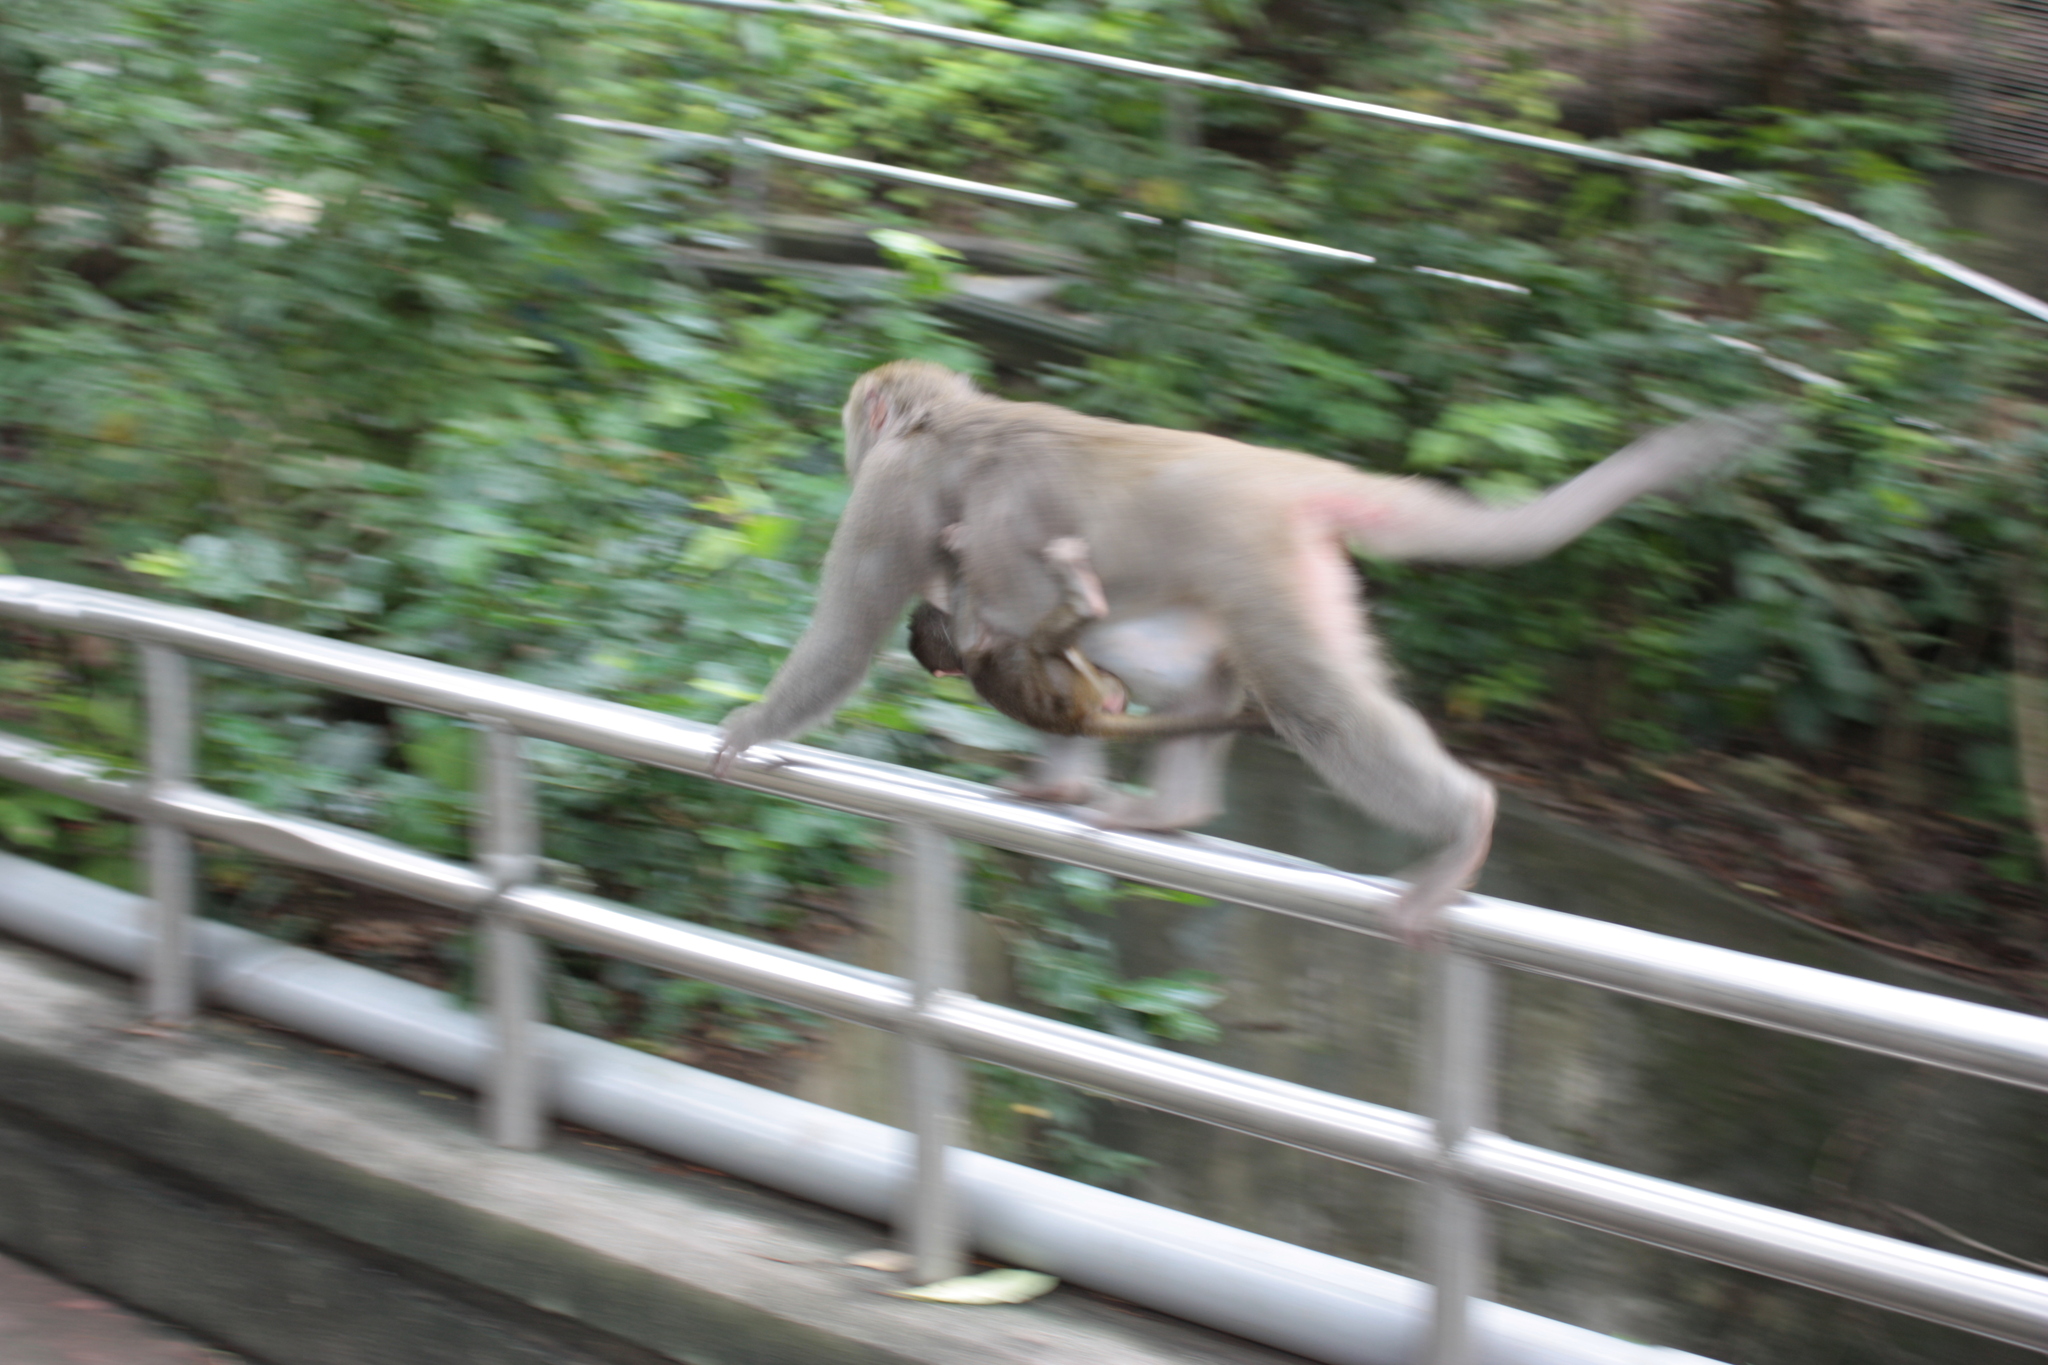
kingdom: Animalia
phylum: Chordata
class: Mammalia
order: Primates
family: Cercopithecidae
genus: Macaca
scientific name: Macaca cyclopis
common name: Formosan rock macaque
